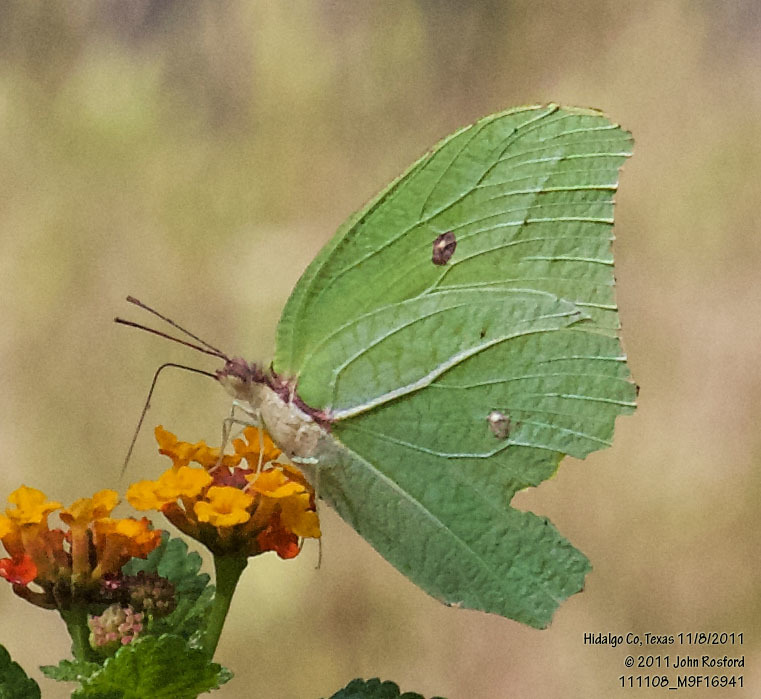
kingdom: Animalia
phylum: Arthropoda
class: Insecta
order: Lepidoptera
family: Pieridae
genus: Anteos
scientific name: Anteos maerula
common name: Angled sulphur
